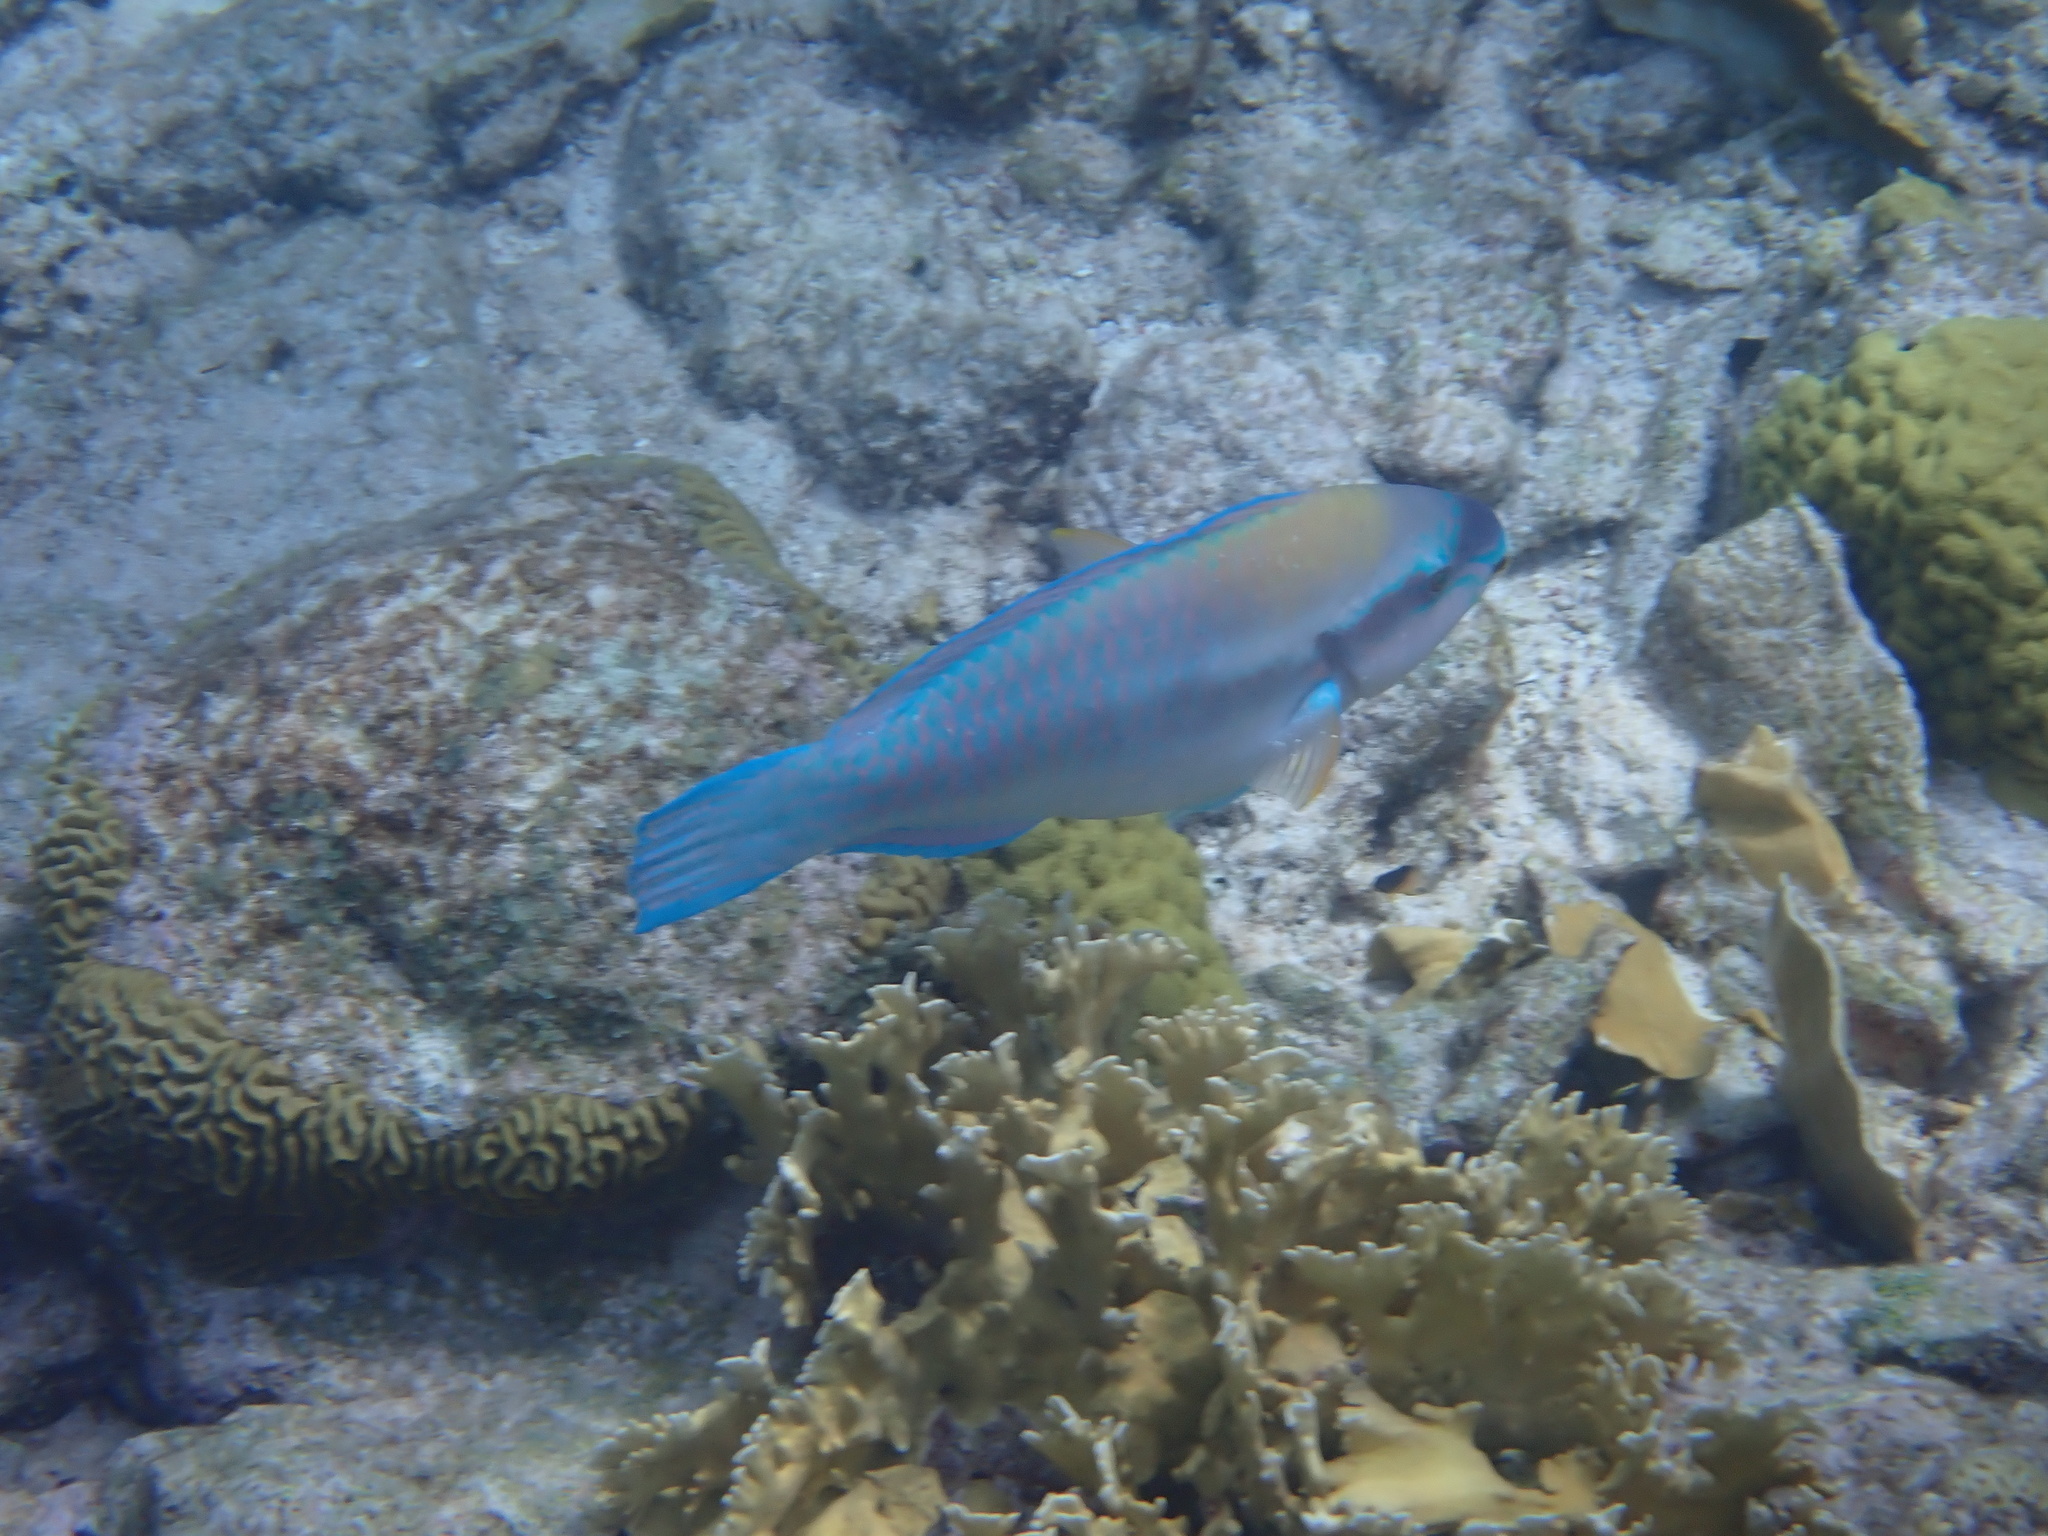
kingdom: Animalia
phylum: Chordata
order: Perciformes
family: Scaridae
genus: Scarus
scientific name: Scarus iseri
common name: Striped parrotfish
